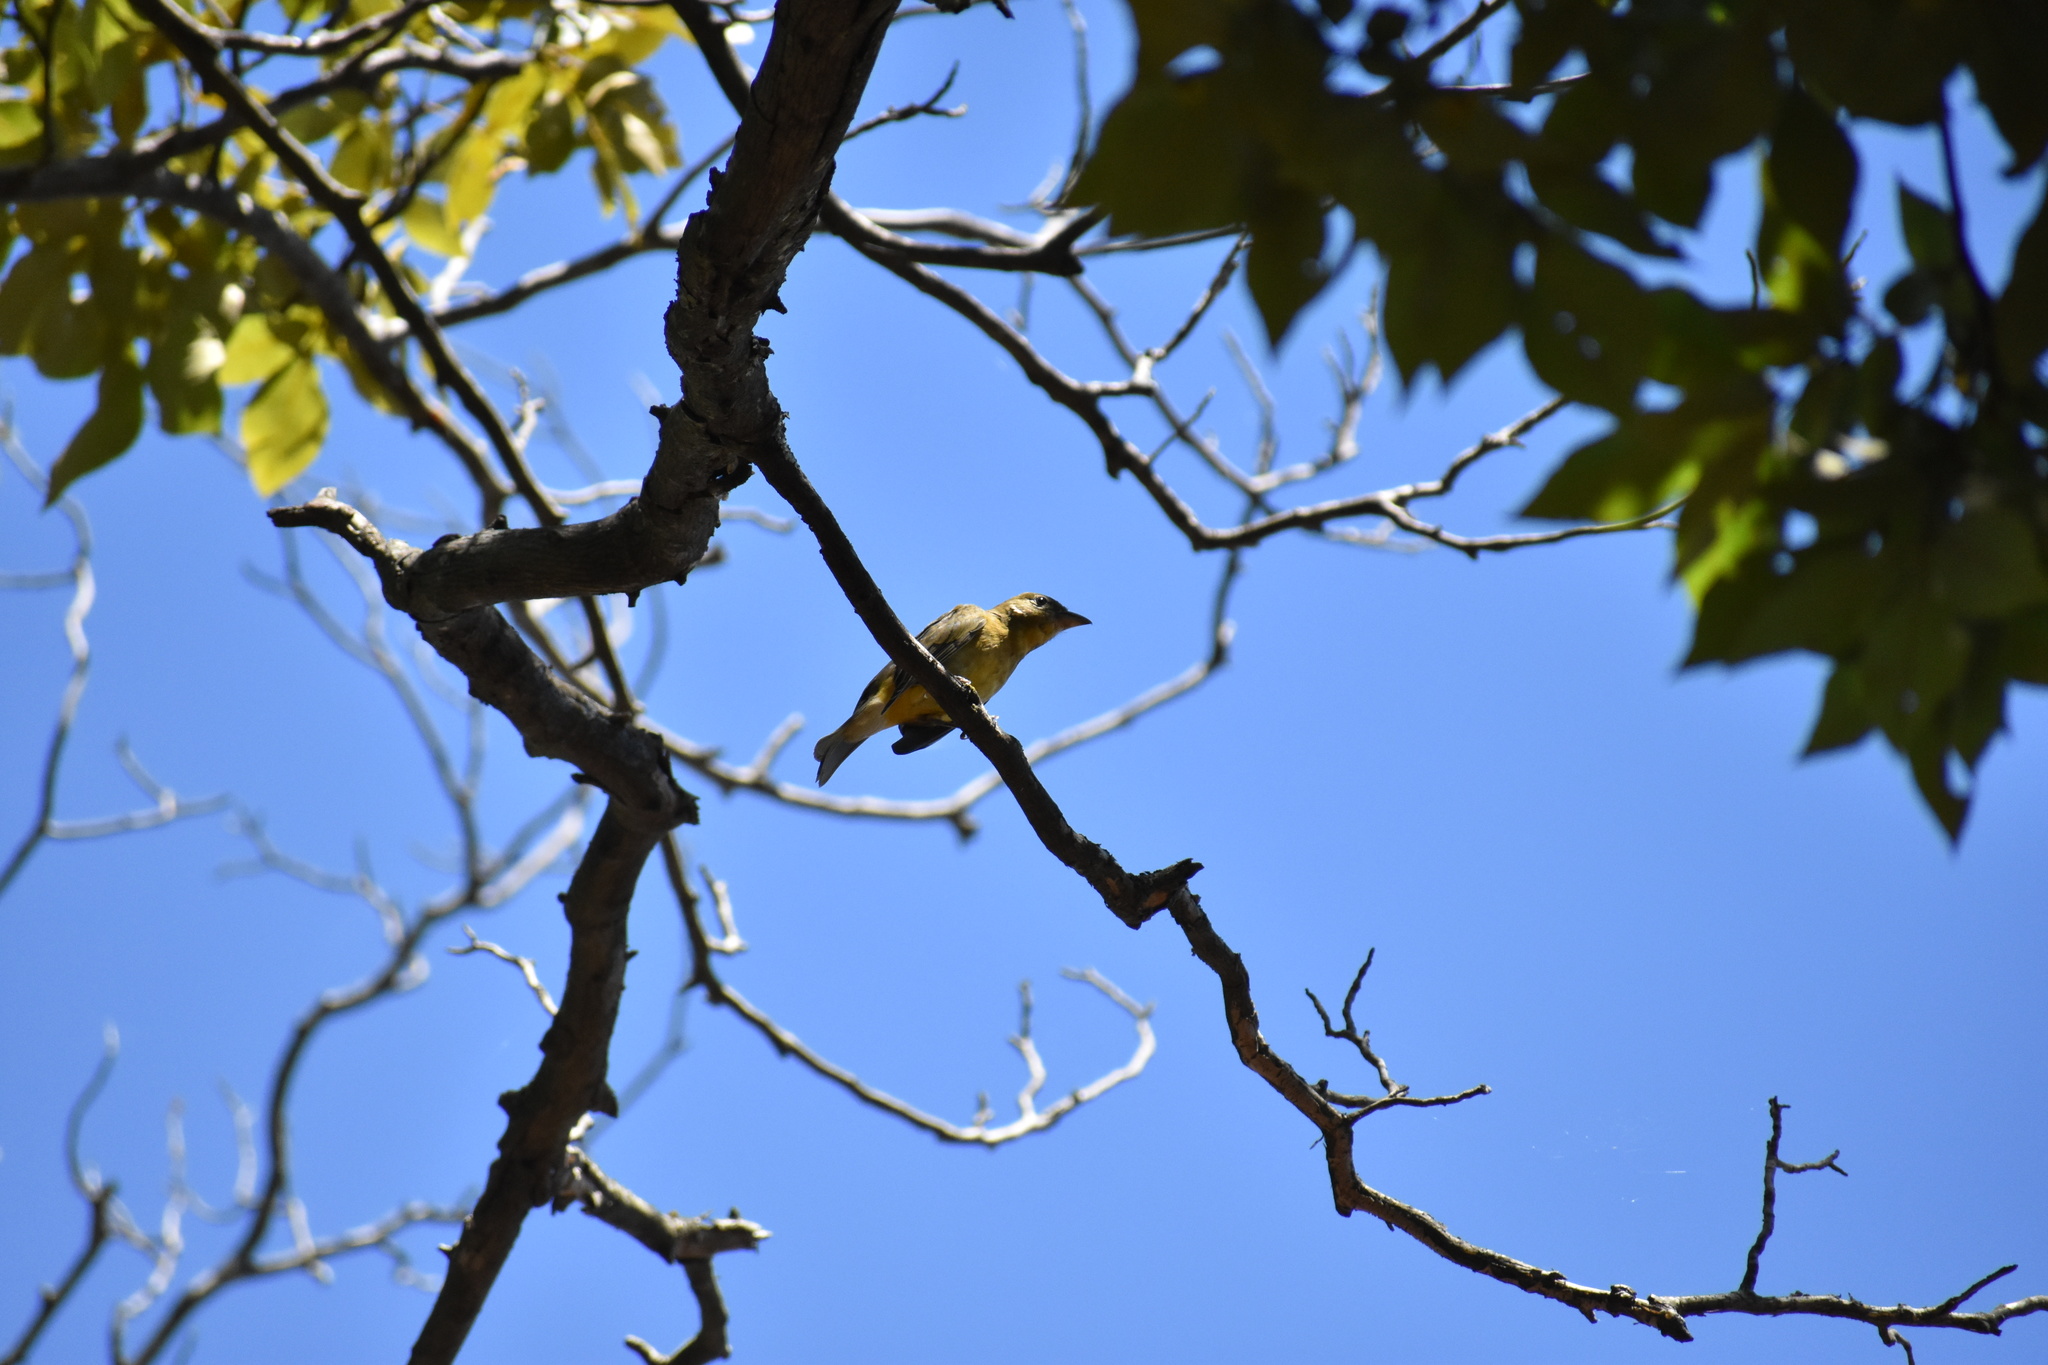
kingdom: Animalia
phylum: Chordata
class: Aves
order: Passeriformes
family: Cardinalidae
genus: Piranga
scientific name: Piranga rubra
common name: Summer tanager
